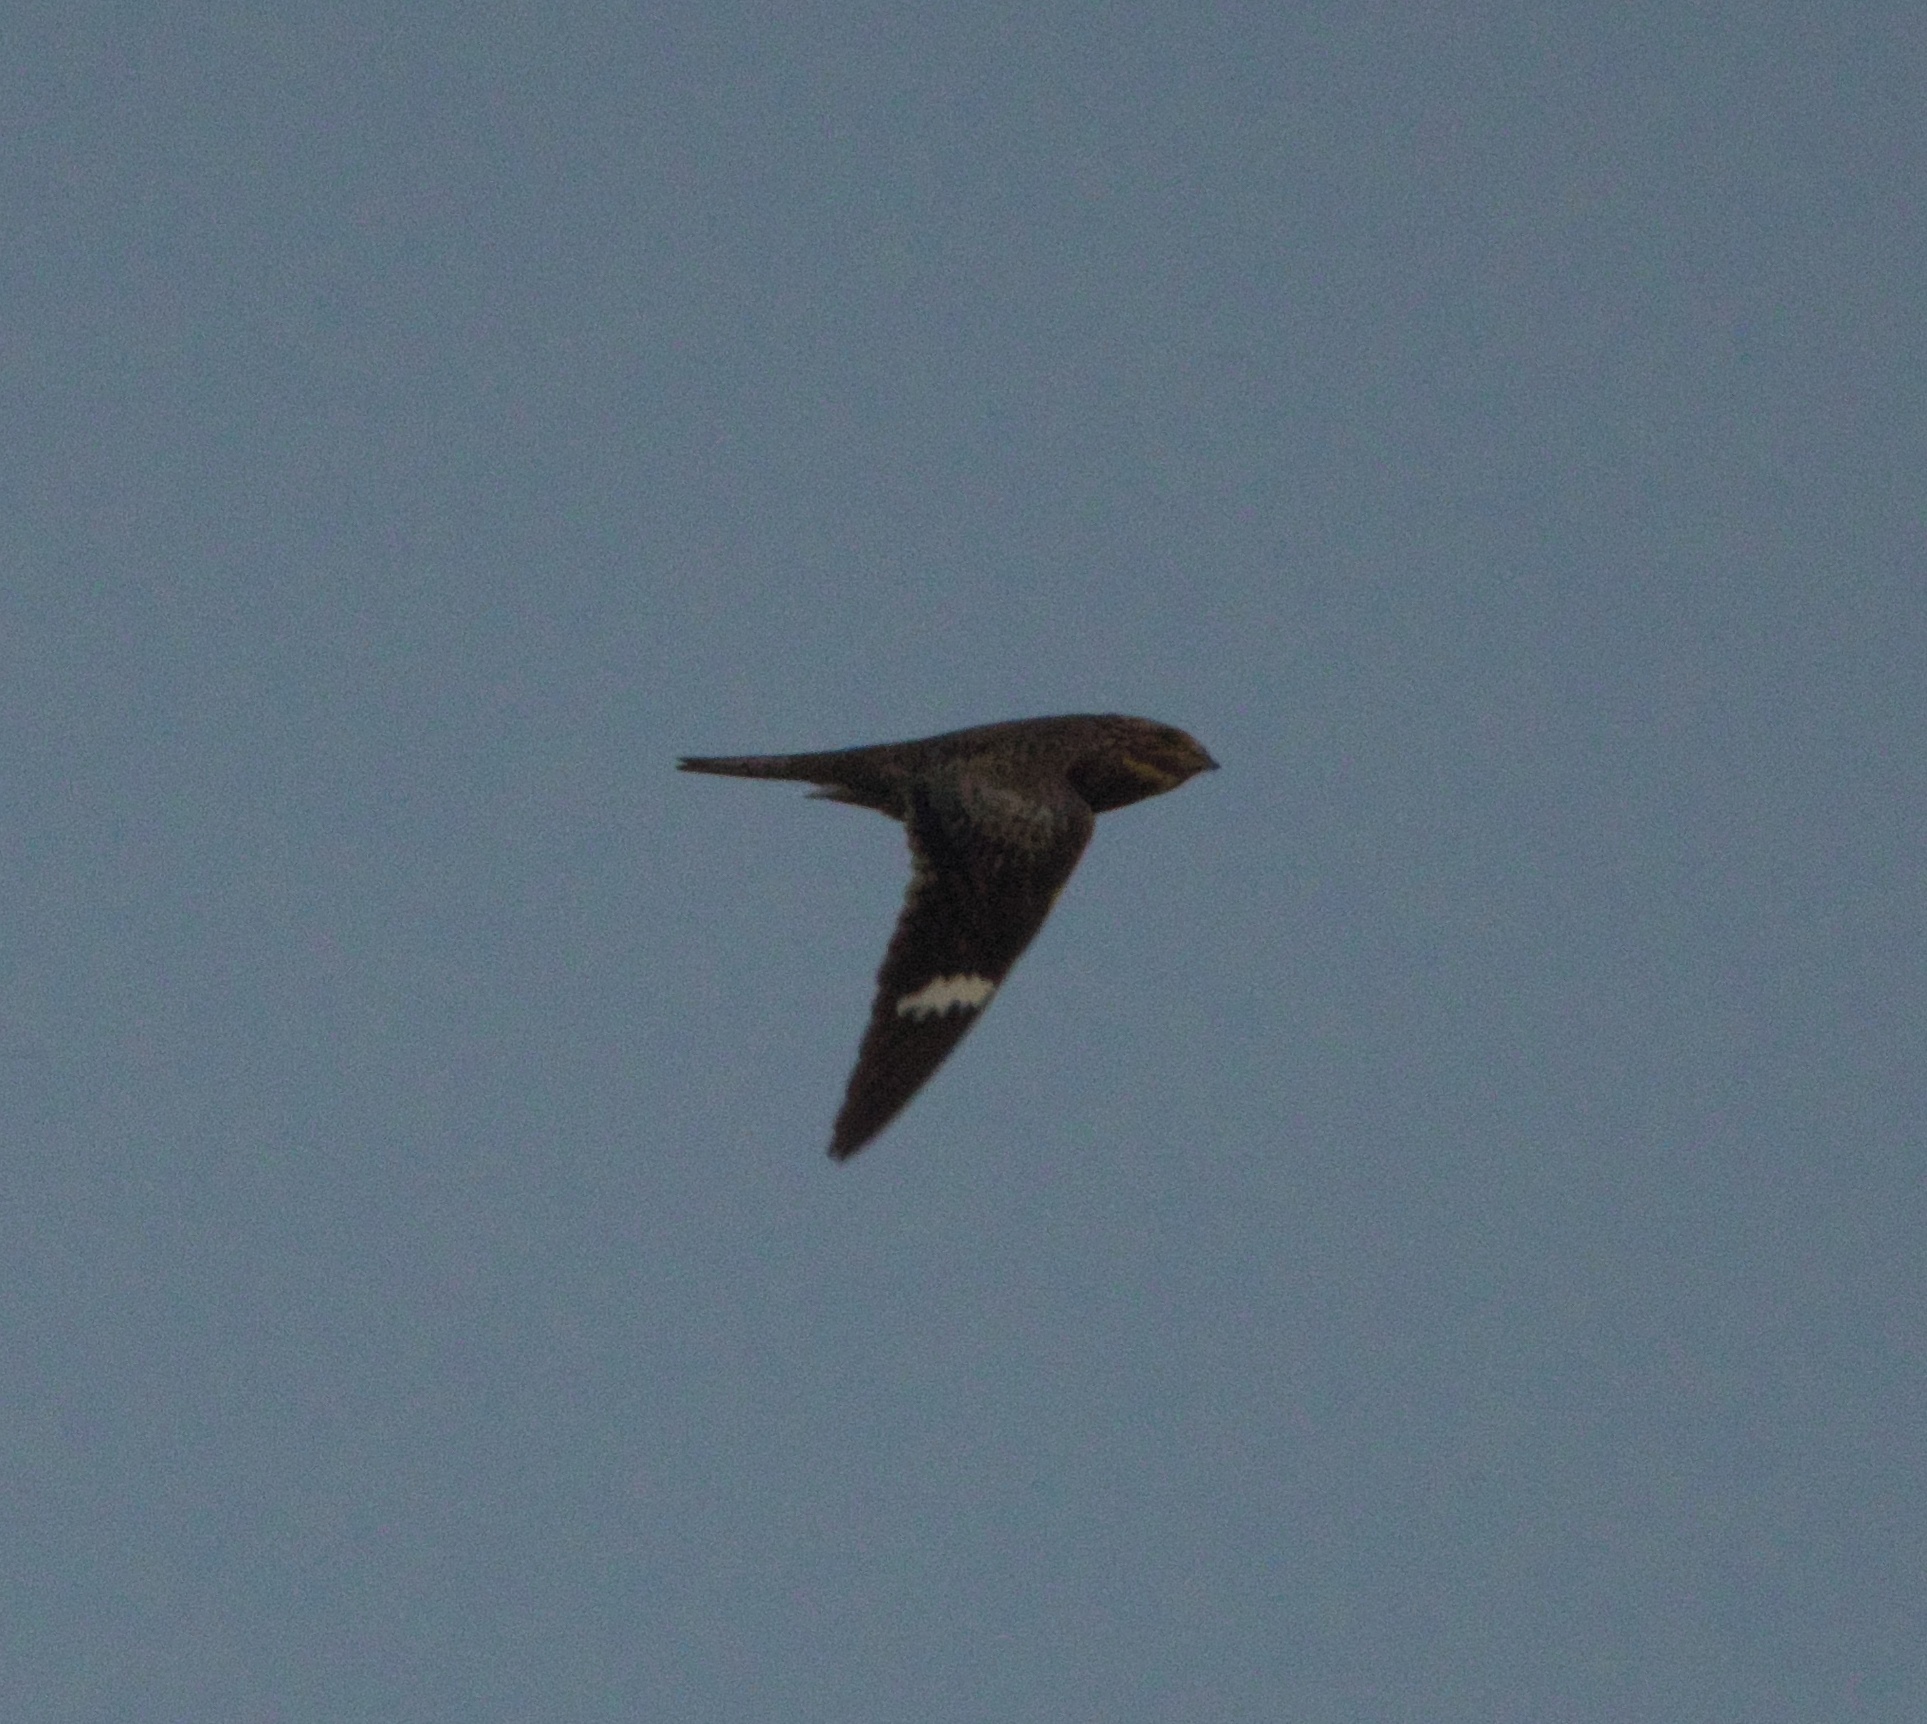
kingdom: Animalia
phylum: Chordata
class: Aves
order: Caprimulgiformes
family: Caprimulgidae
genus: Chordeiles
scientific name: Chordeiles minor
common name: Common nighthawk
